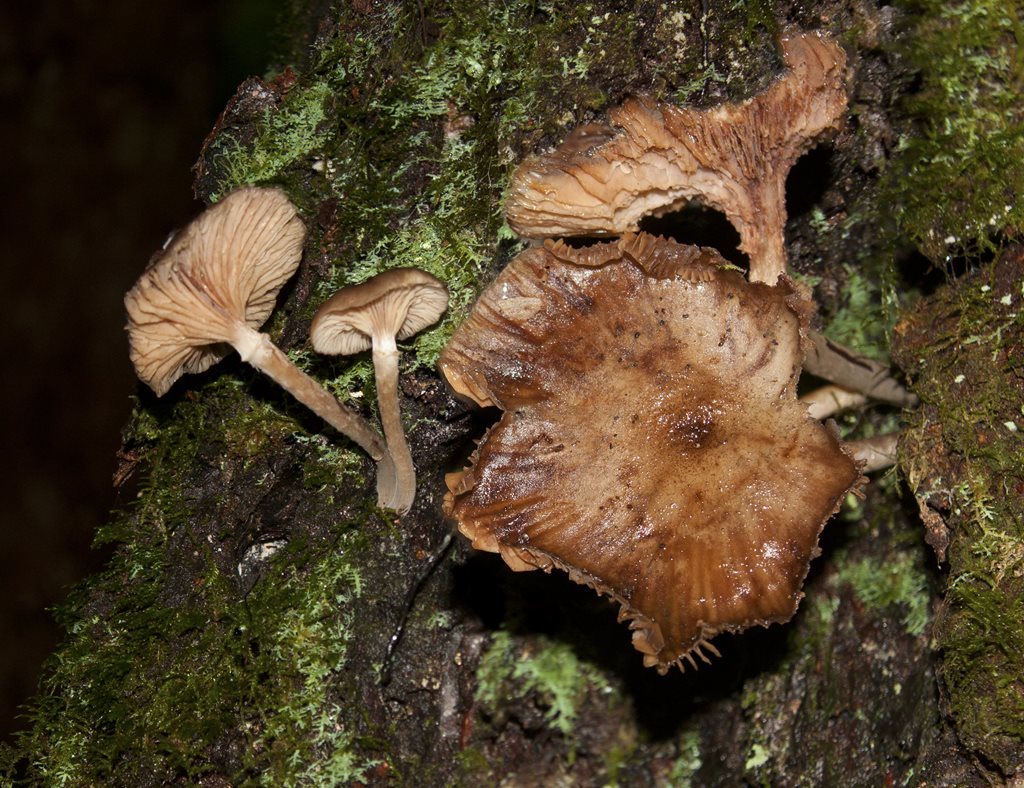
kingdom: Fungi
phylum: Basidiomycota
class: Agaricomycetes
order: Agaricales
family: Physalacriaceae
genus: Armillaria
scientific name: Armillaria novae-zelandiae
